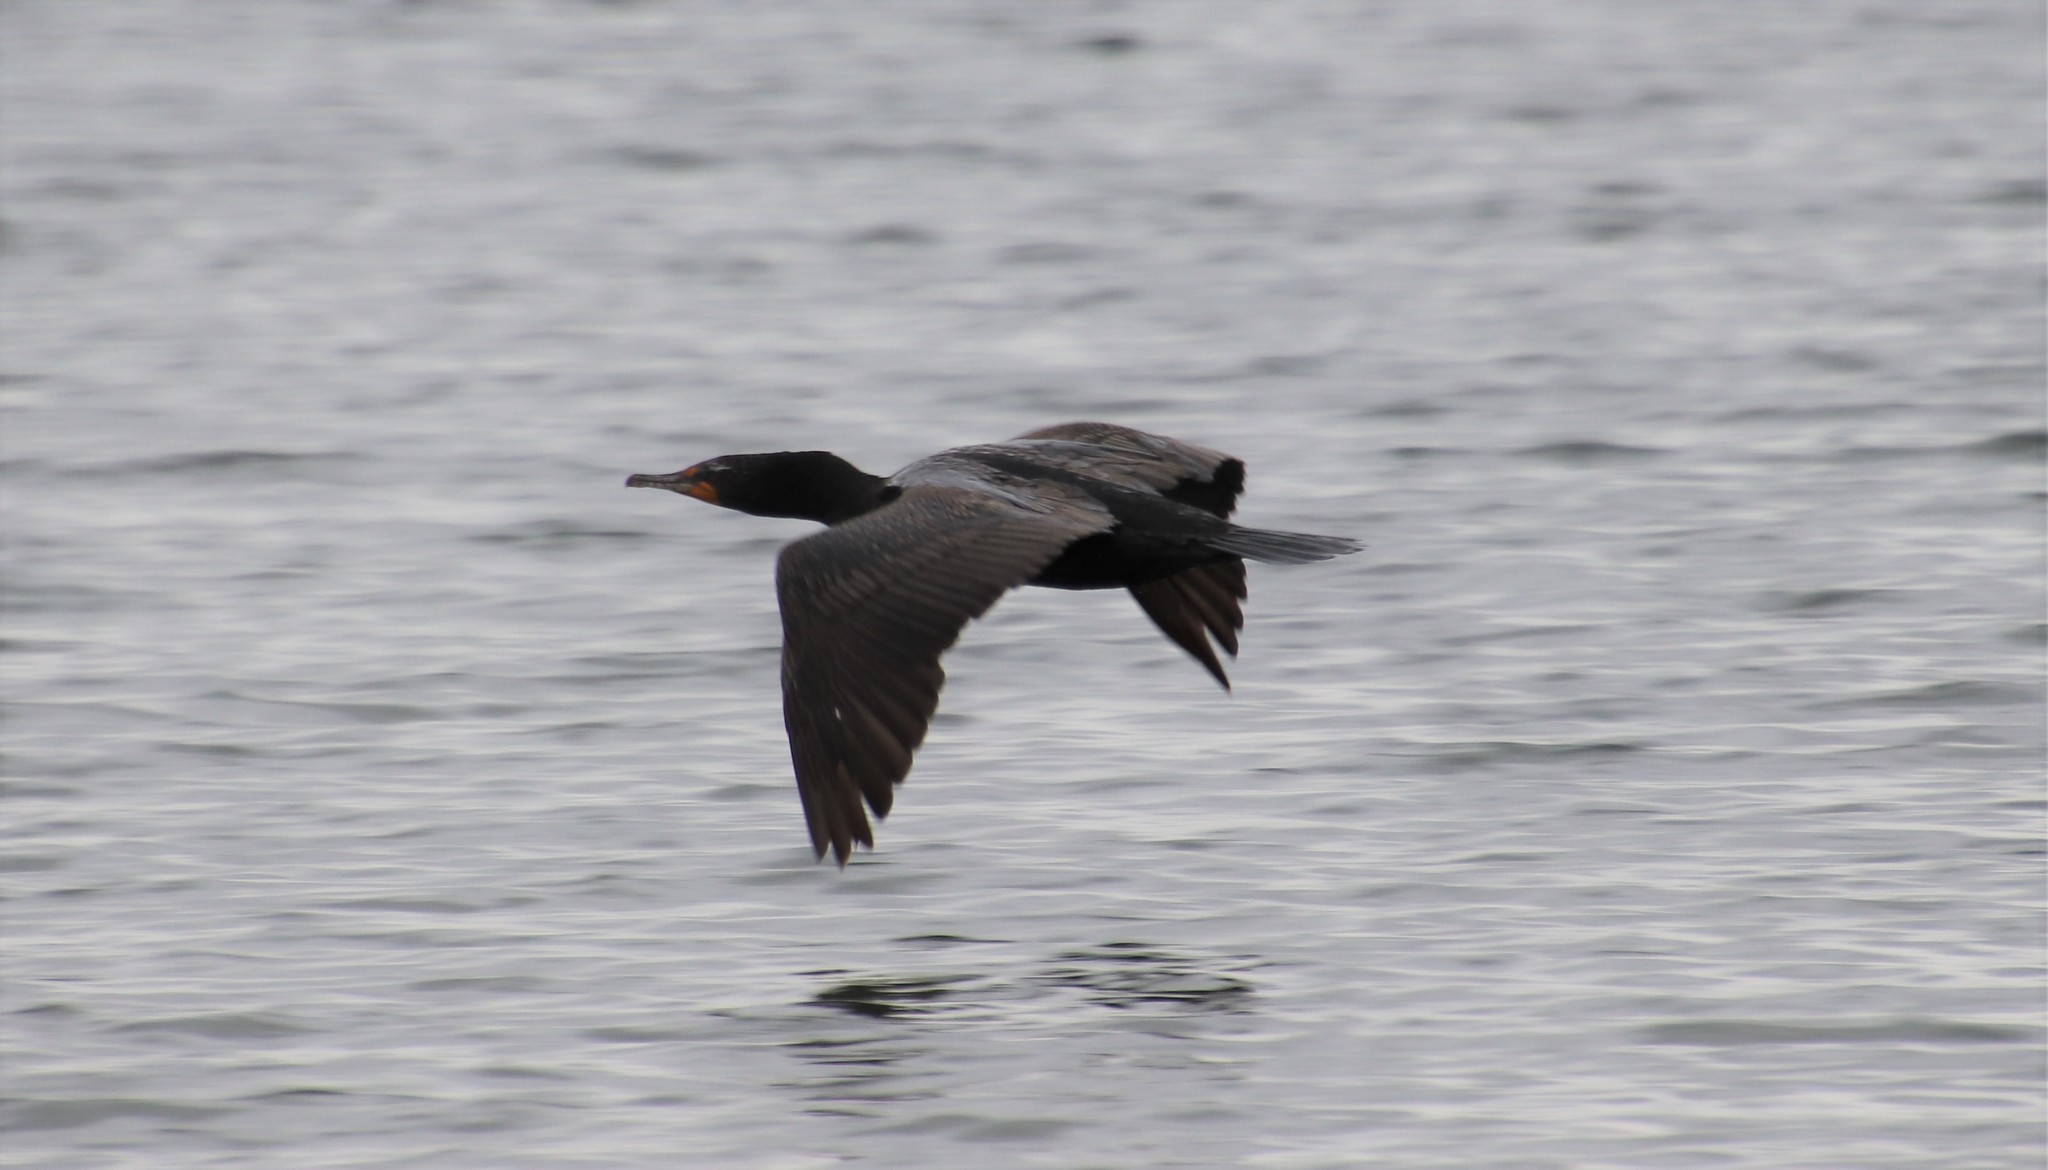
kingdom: Animalia
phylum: Chordata
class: Aves
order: Suliformes
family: Phalacrocoracidae
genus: Phalacrocorax
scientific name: Phalacrocorax auritus
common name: Double-crested cormorant
